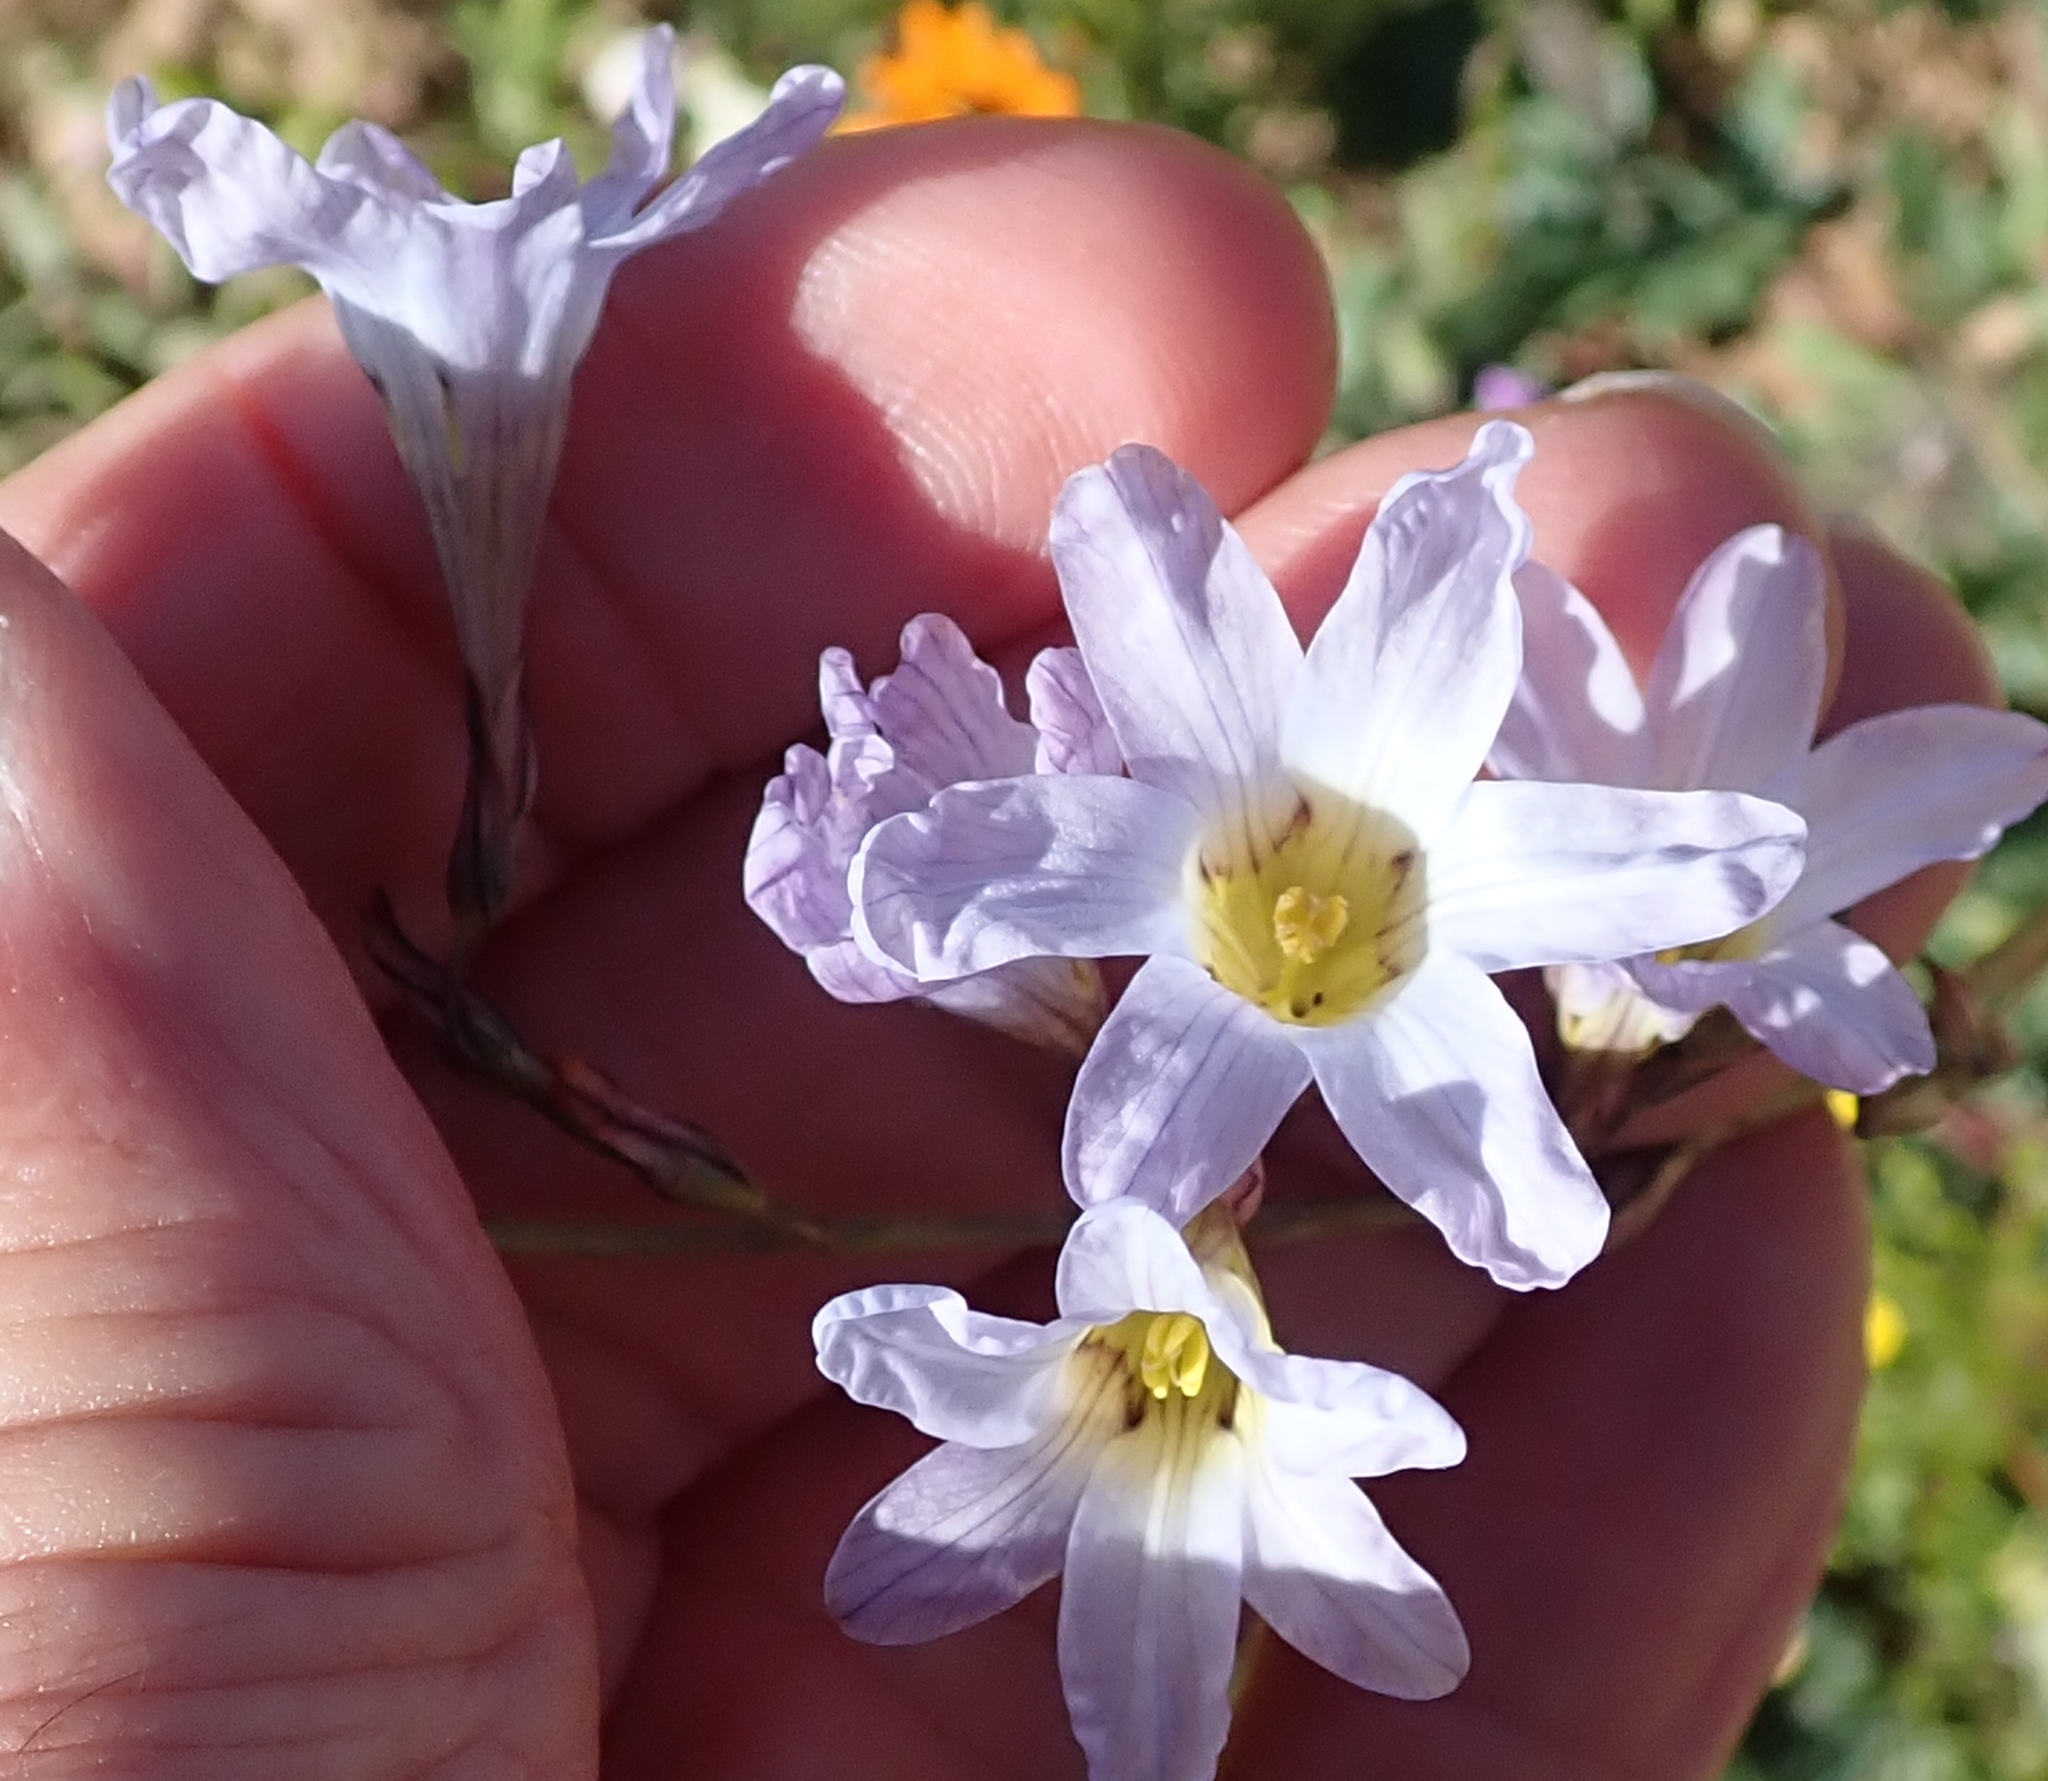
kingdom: Plantae
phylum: Tracheophyta
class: Liliopsida
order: Asparagales
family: Iridaceae
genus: Ixia
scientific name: Ixia rapunculoides
